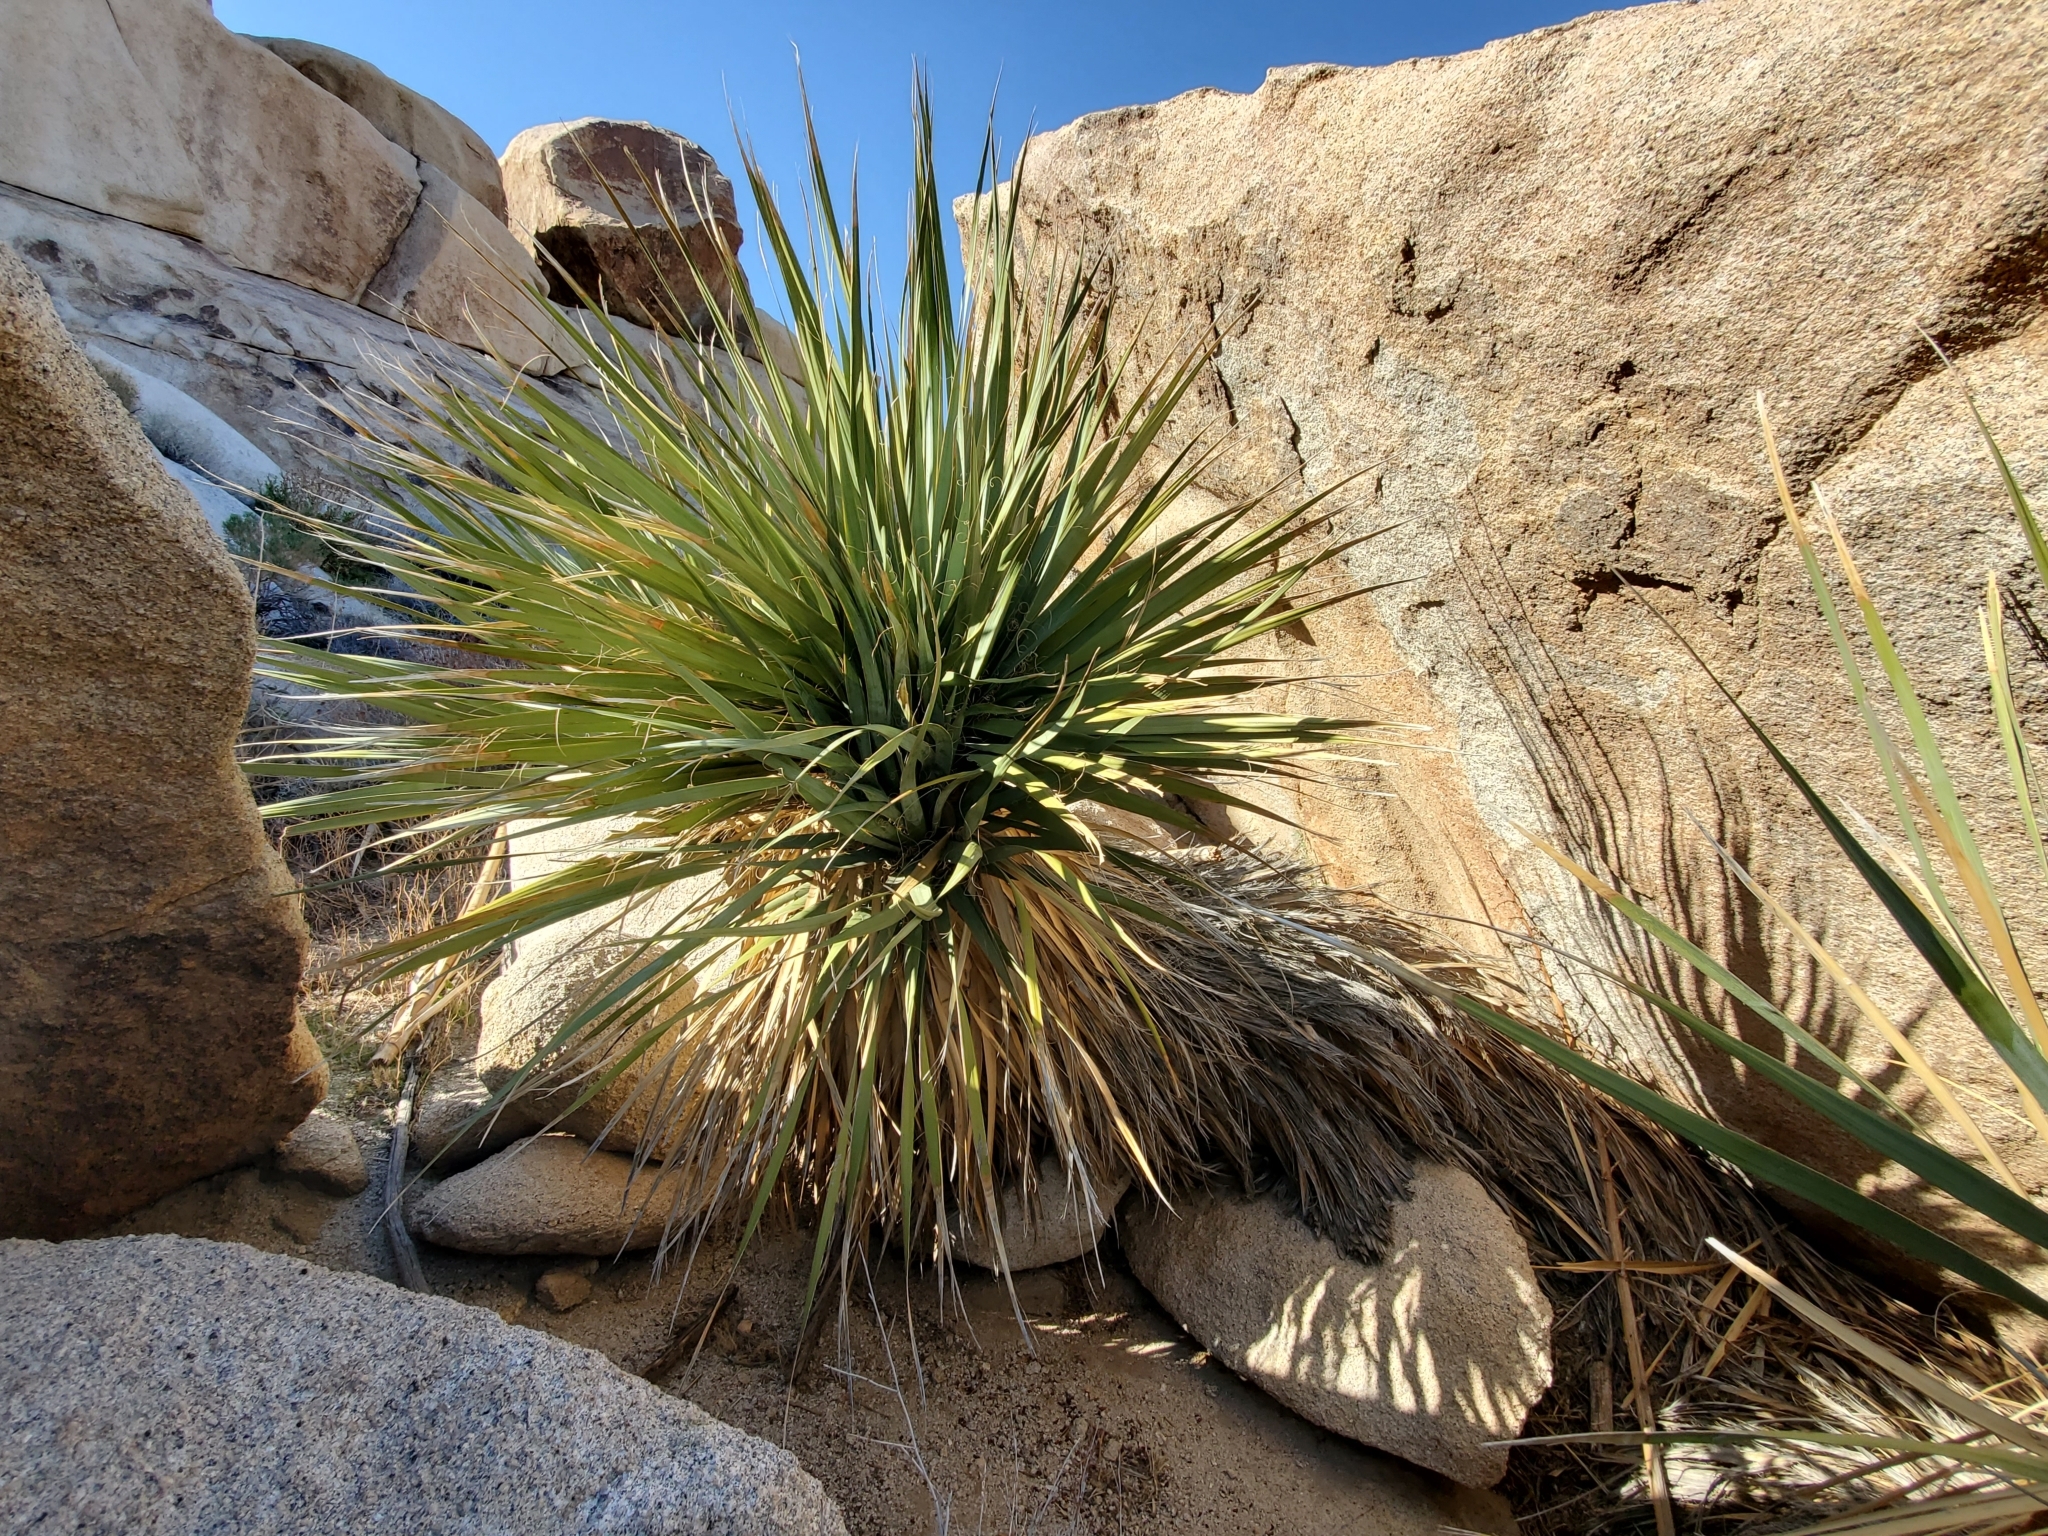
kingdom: Plantae
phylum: Tracheophyta
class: Liliopsida
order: Asparagales
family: Asparagaceae
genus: Nolina
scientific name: Nolina bigelovii
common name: Bigelow bear-grass
